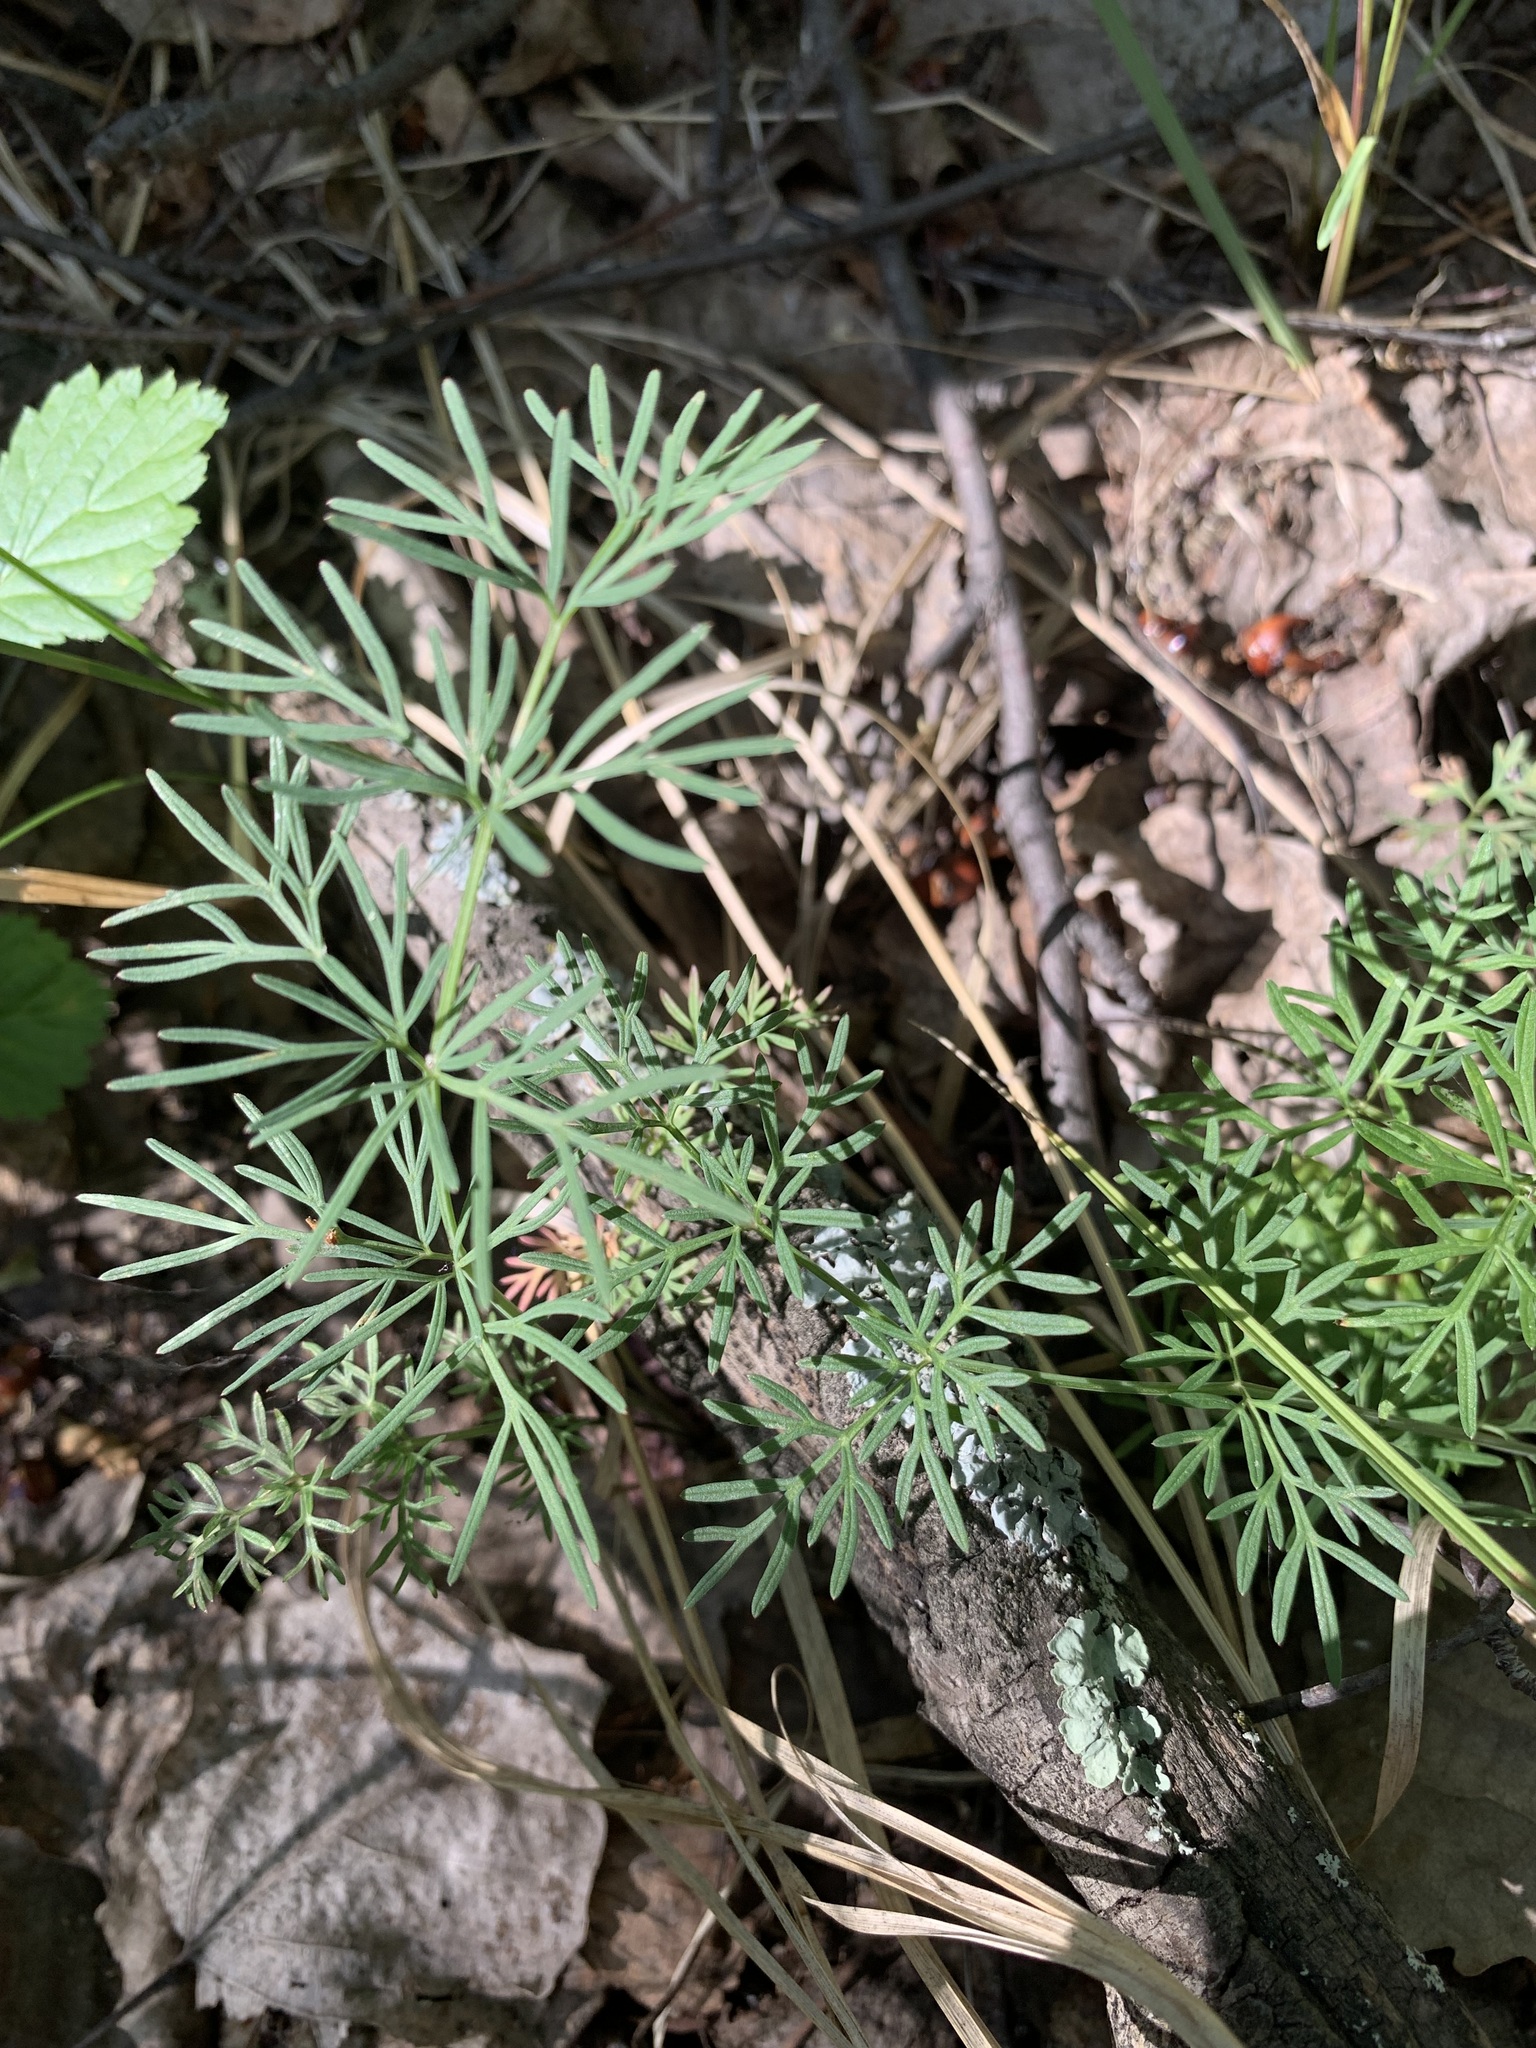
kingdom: Plantae
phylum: Tracheophyta
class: Magnoliopsida
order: Apiales
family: Apiaceae
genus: Kadenia
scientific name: Kadenia dubia
